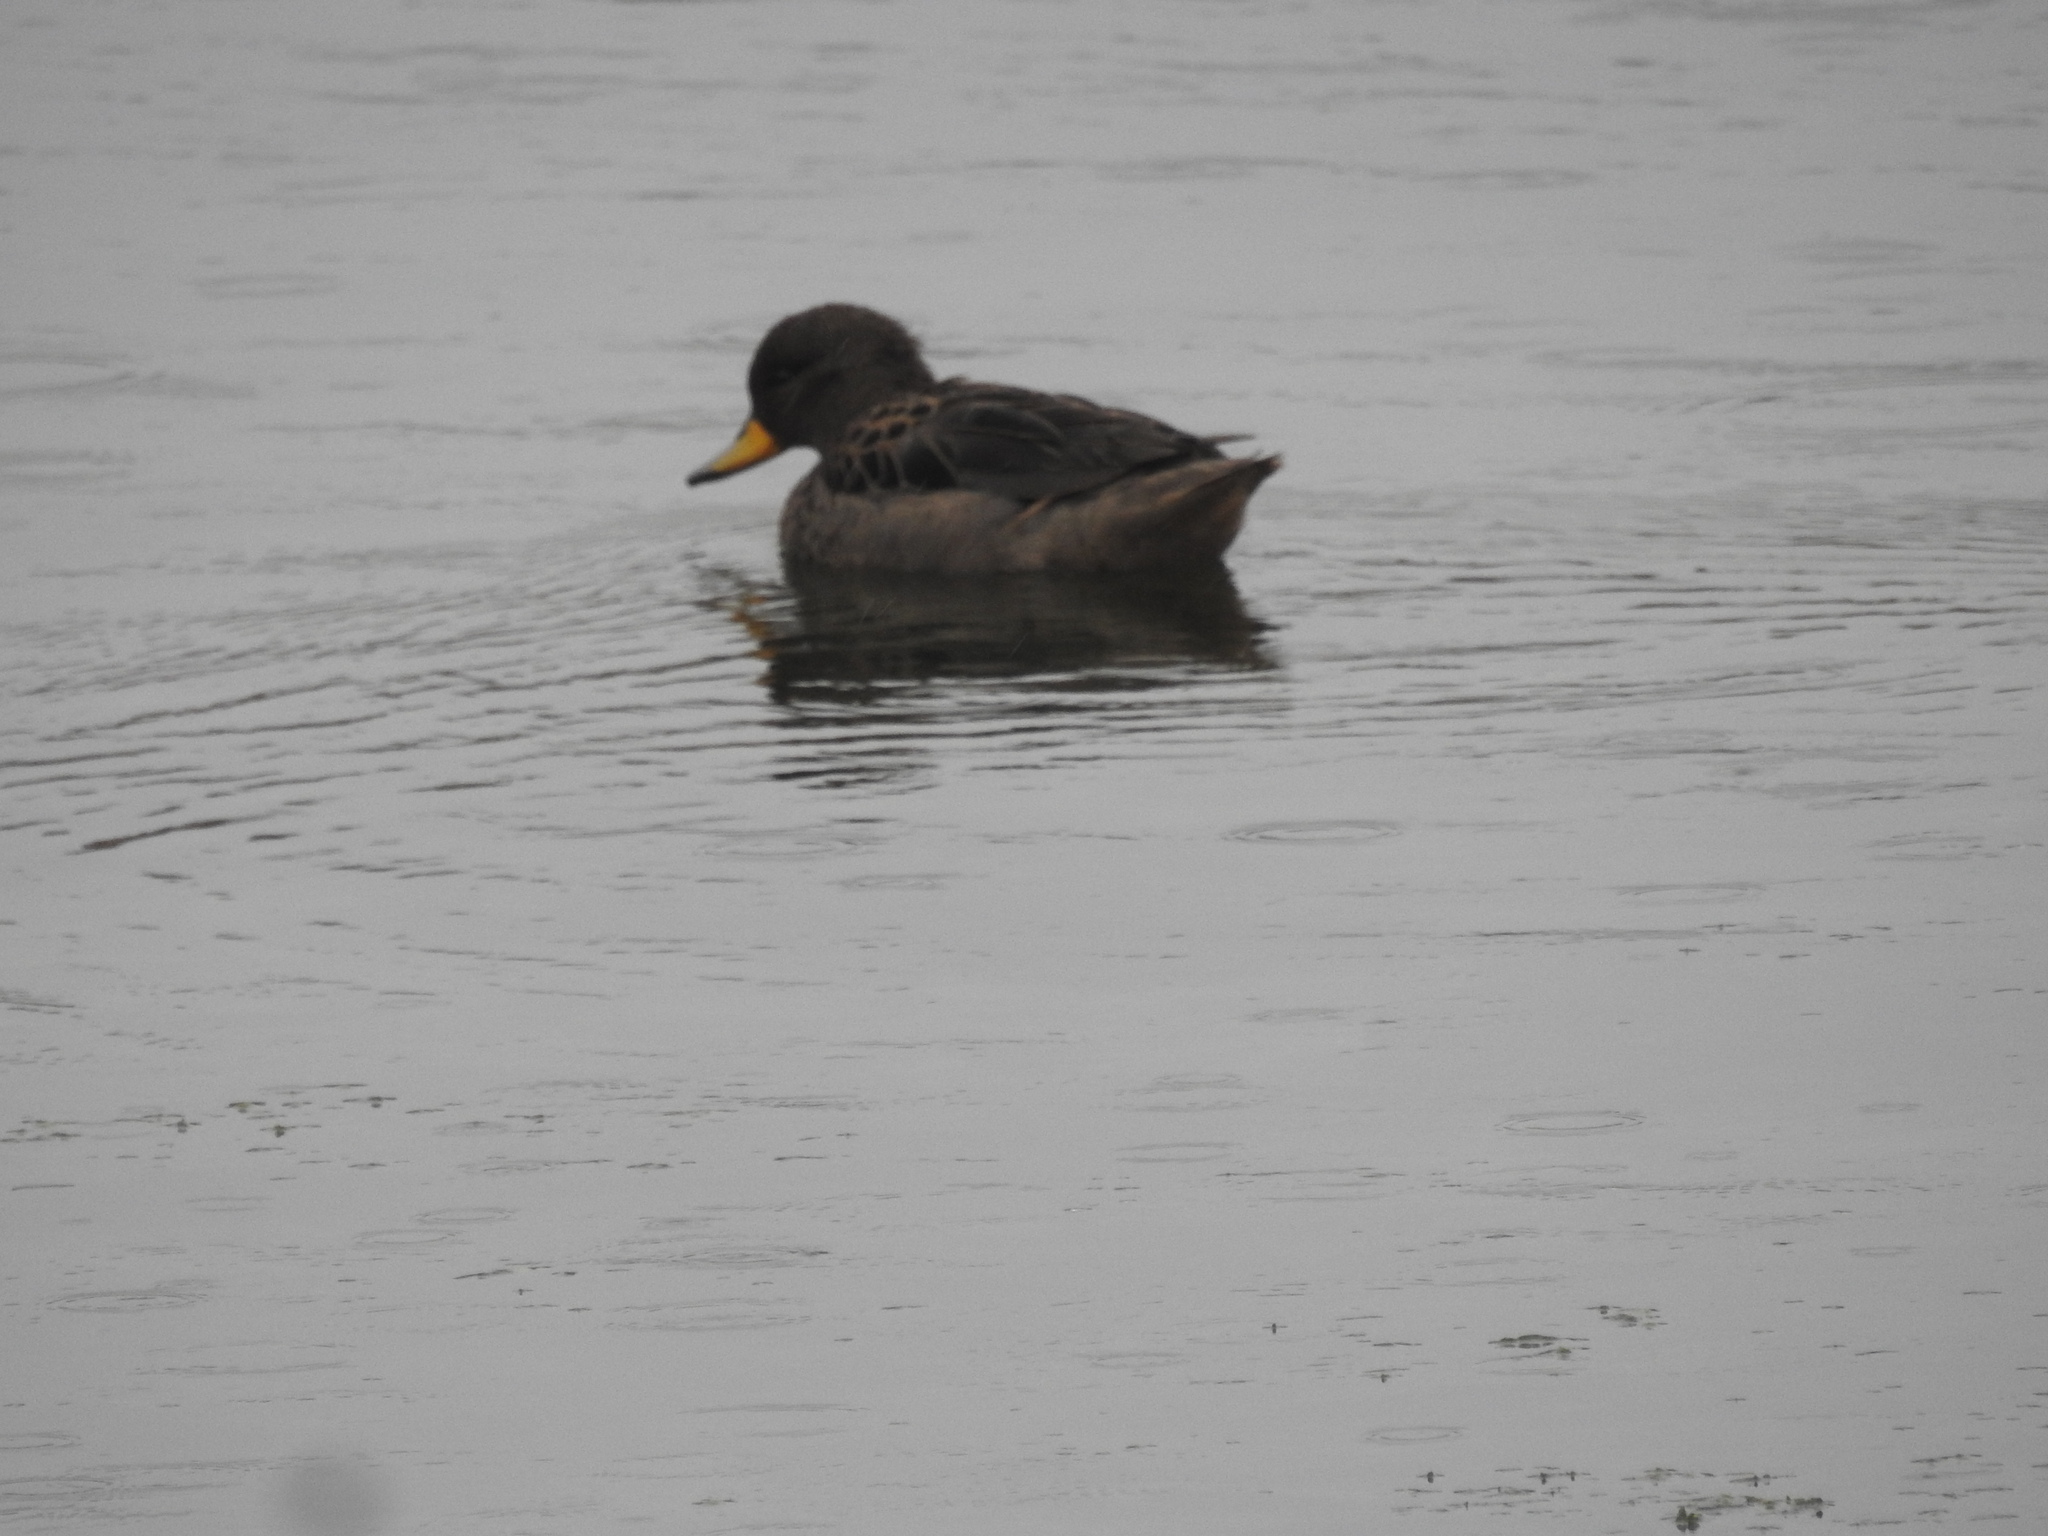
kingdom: Animalia
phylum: Chordata
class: Aves
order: Anseriformes
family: Anatidae
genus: Anas
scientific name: Anas flavirostris
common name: Yellow-billed teal
